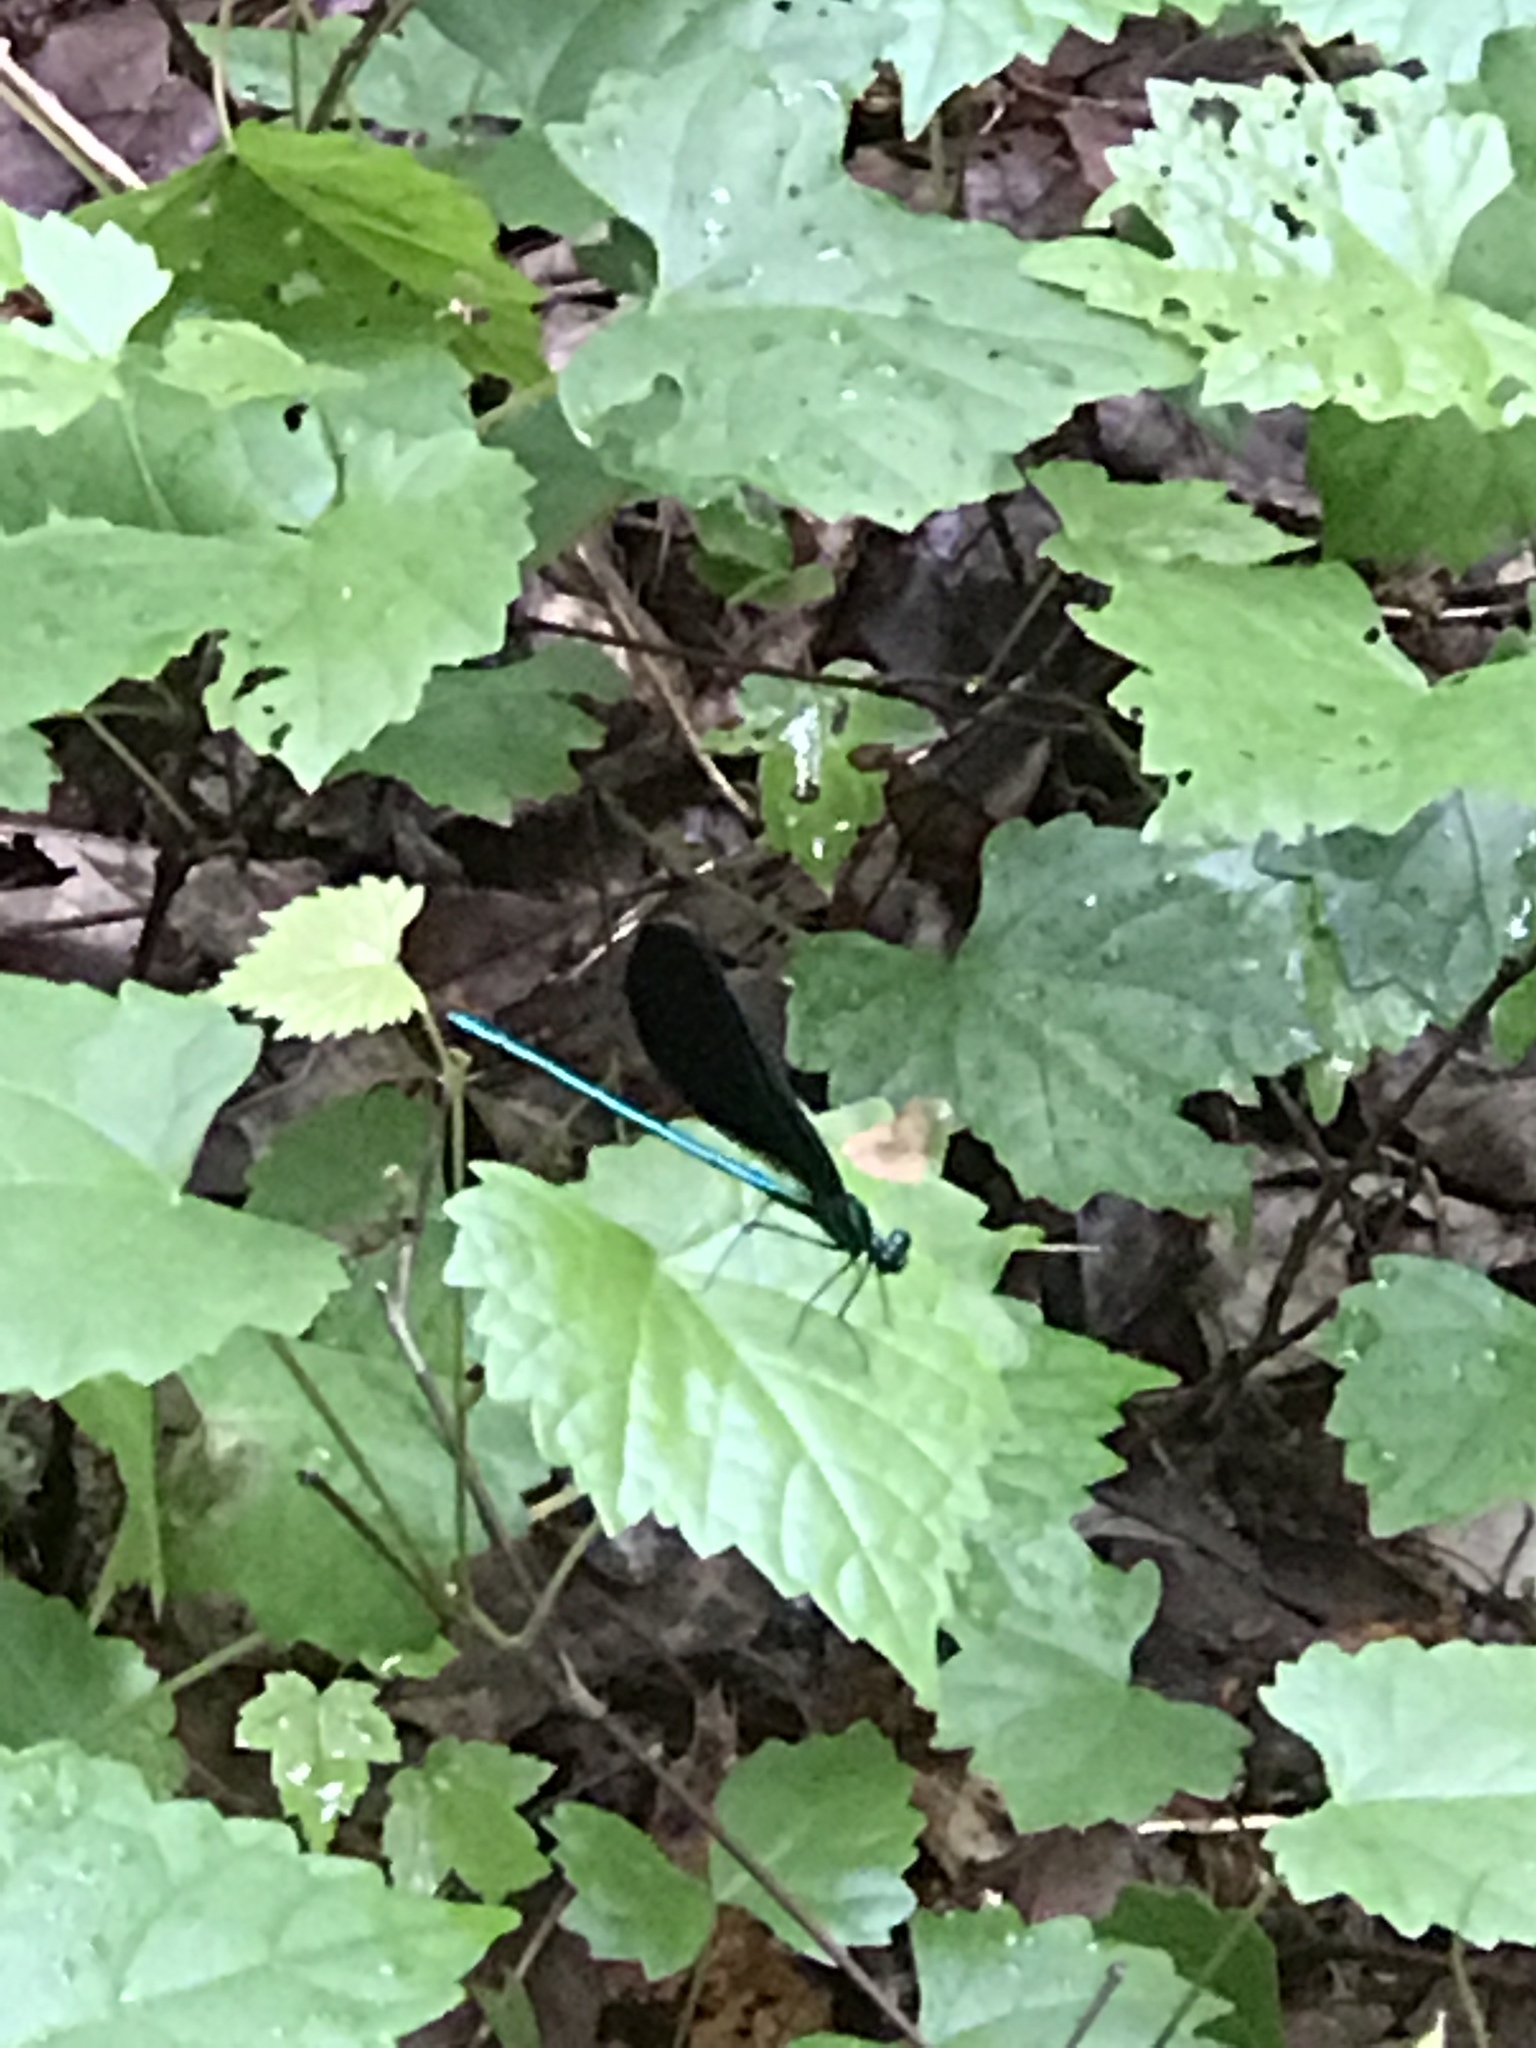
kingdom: Animalia
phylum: Arthropoda
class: Insecta
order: Odonata
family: Calopterygidae
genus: Calopteryx
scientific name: Calopteryx maculata
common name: Ebony jewelwing
